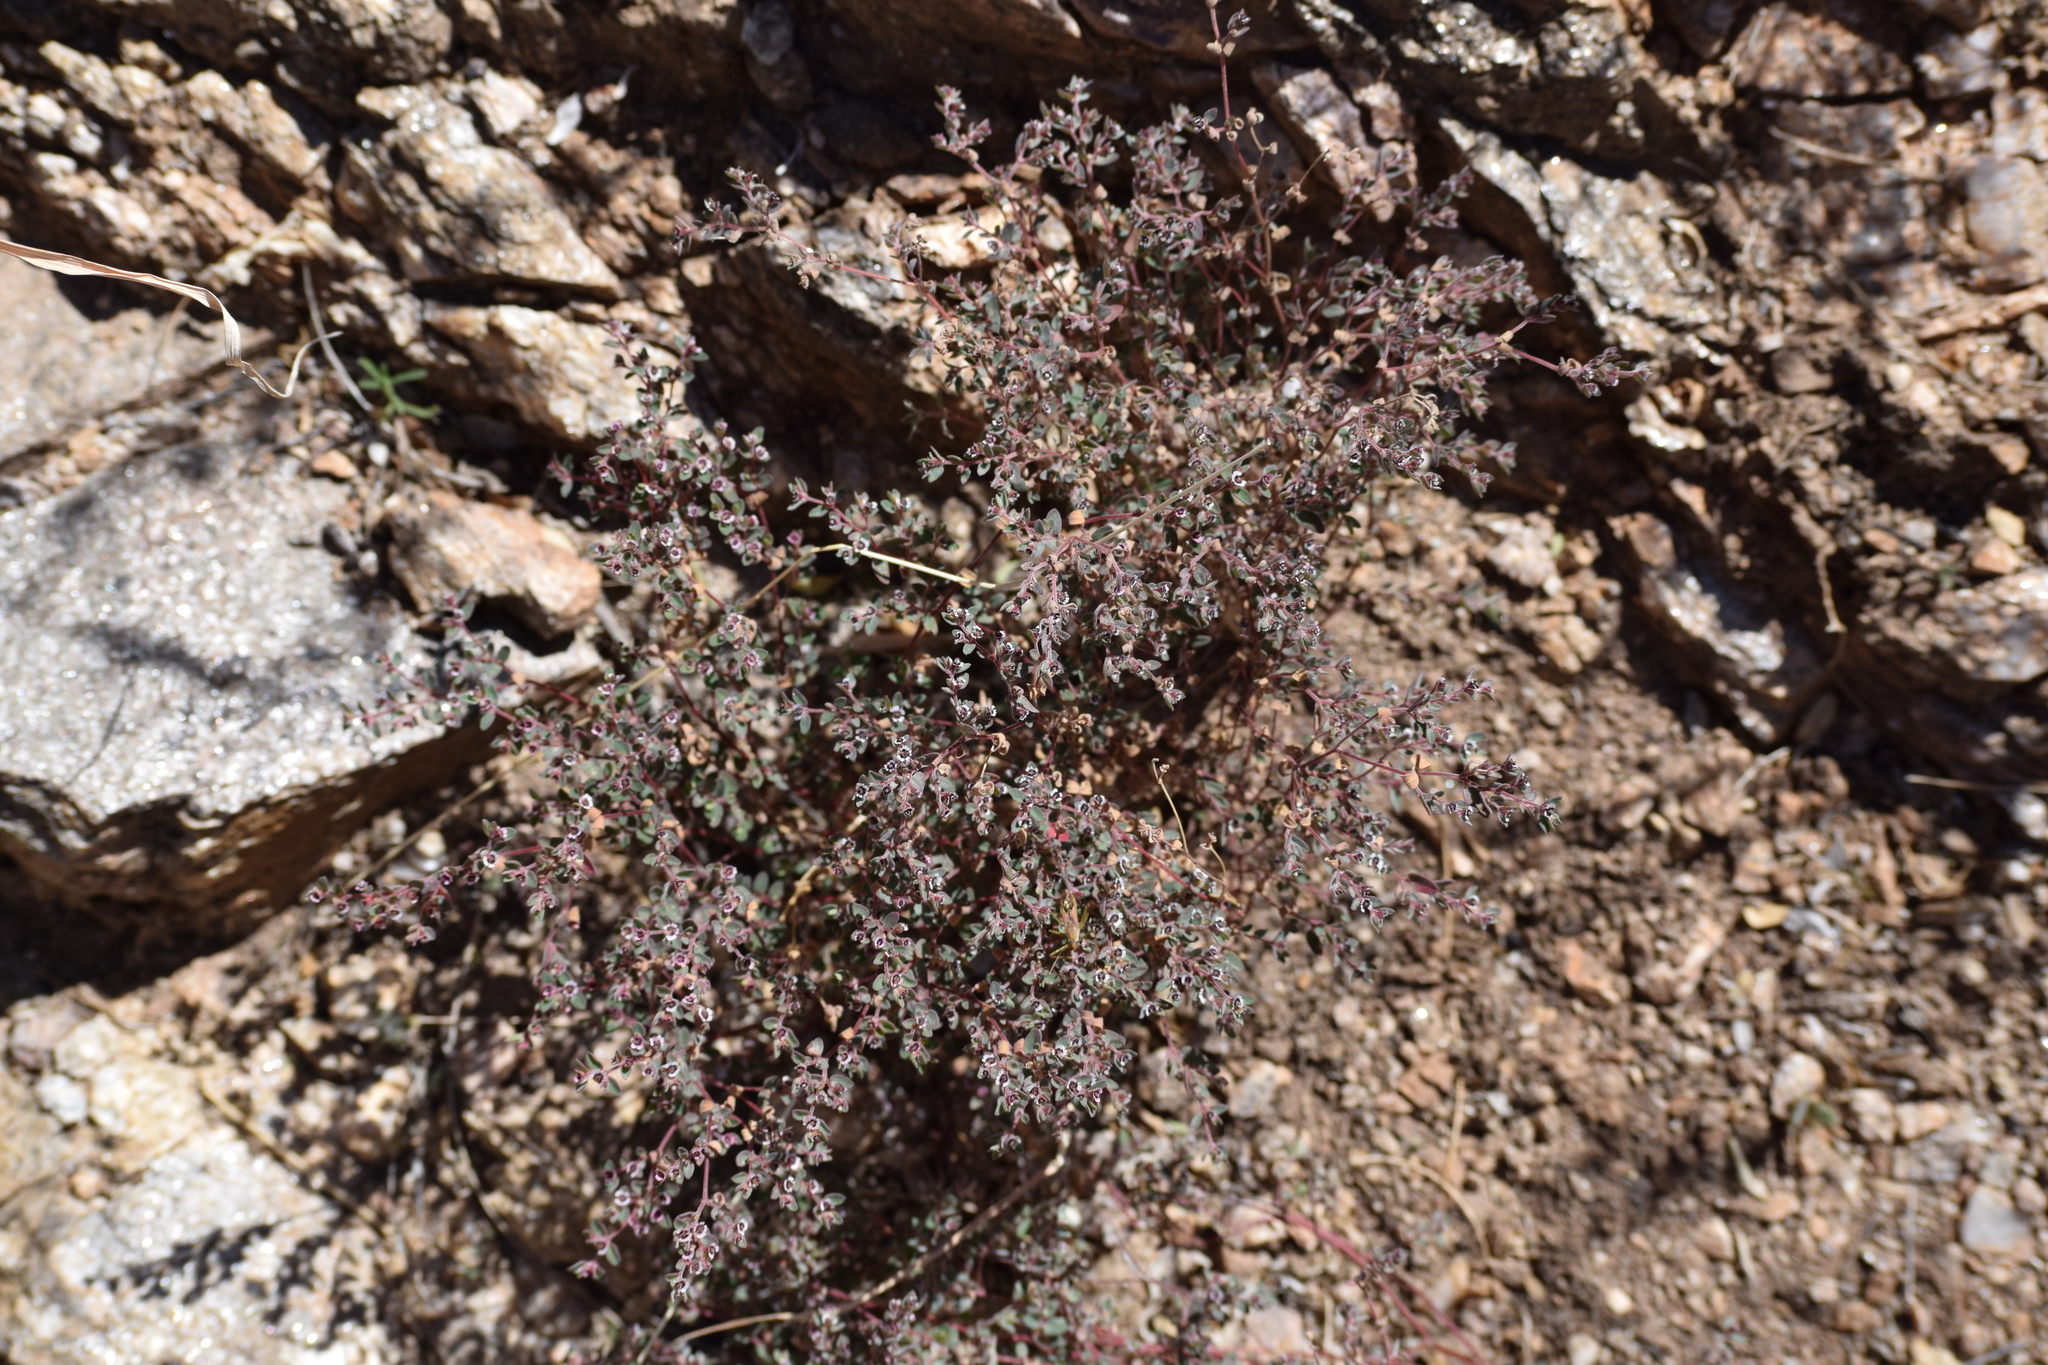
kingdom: Plantae
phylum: Tracheophyta
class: Magnoliopsida
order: Malpighiales
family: Euphorbiaceae
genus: Euphorbia
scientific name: Euphorbia melanadenia
